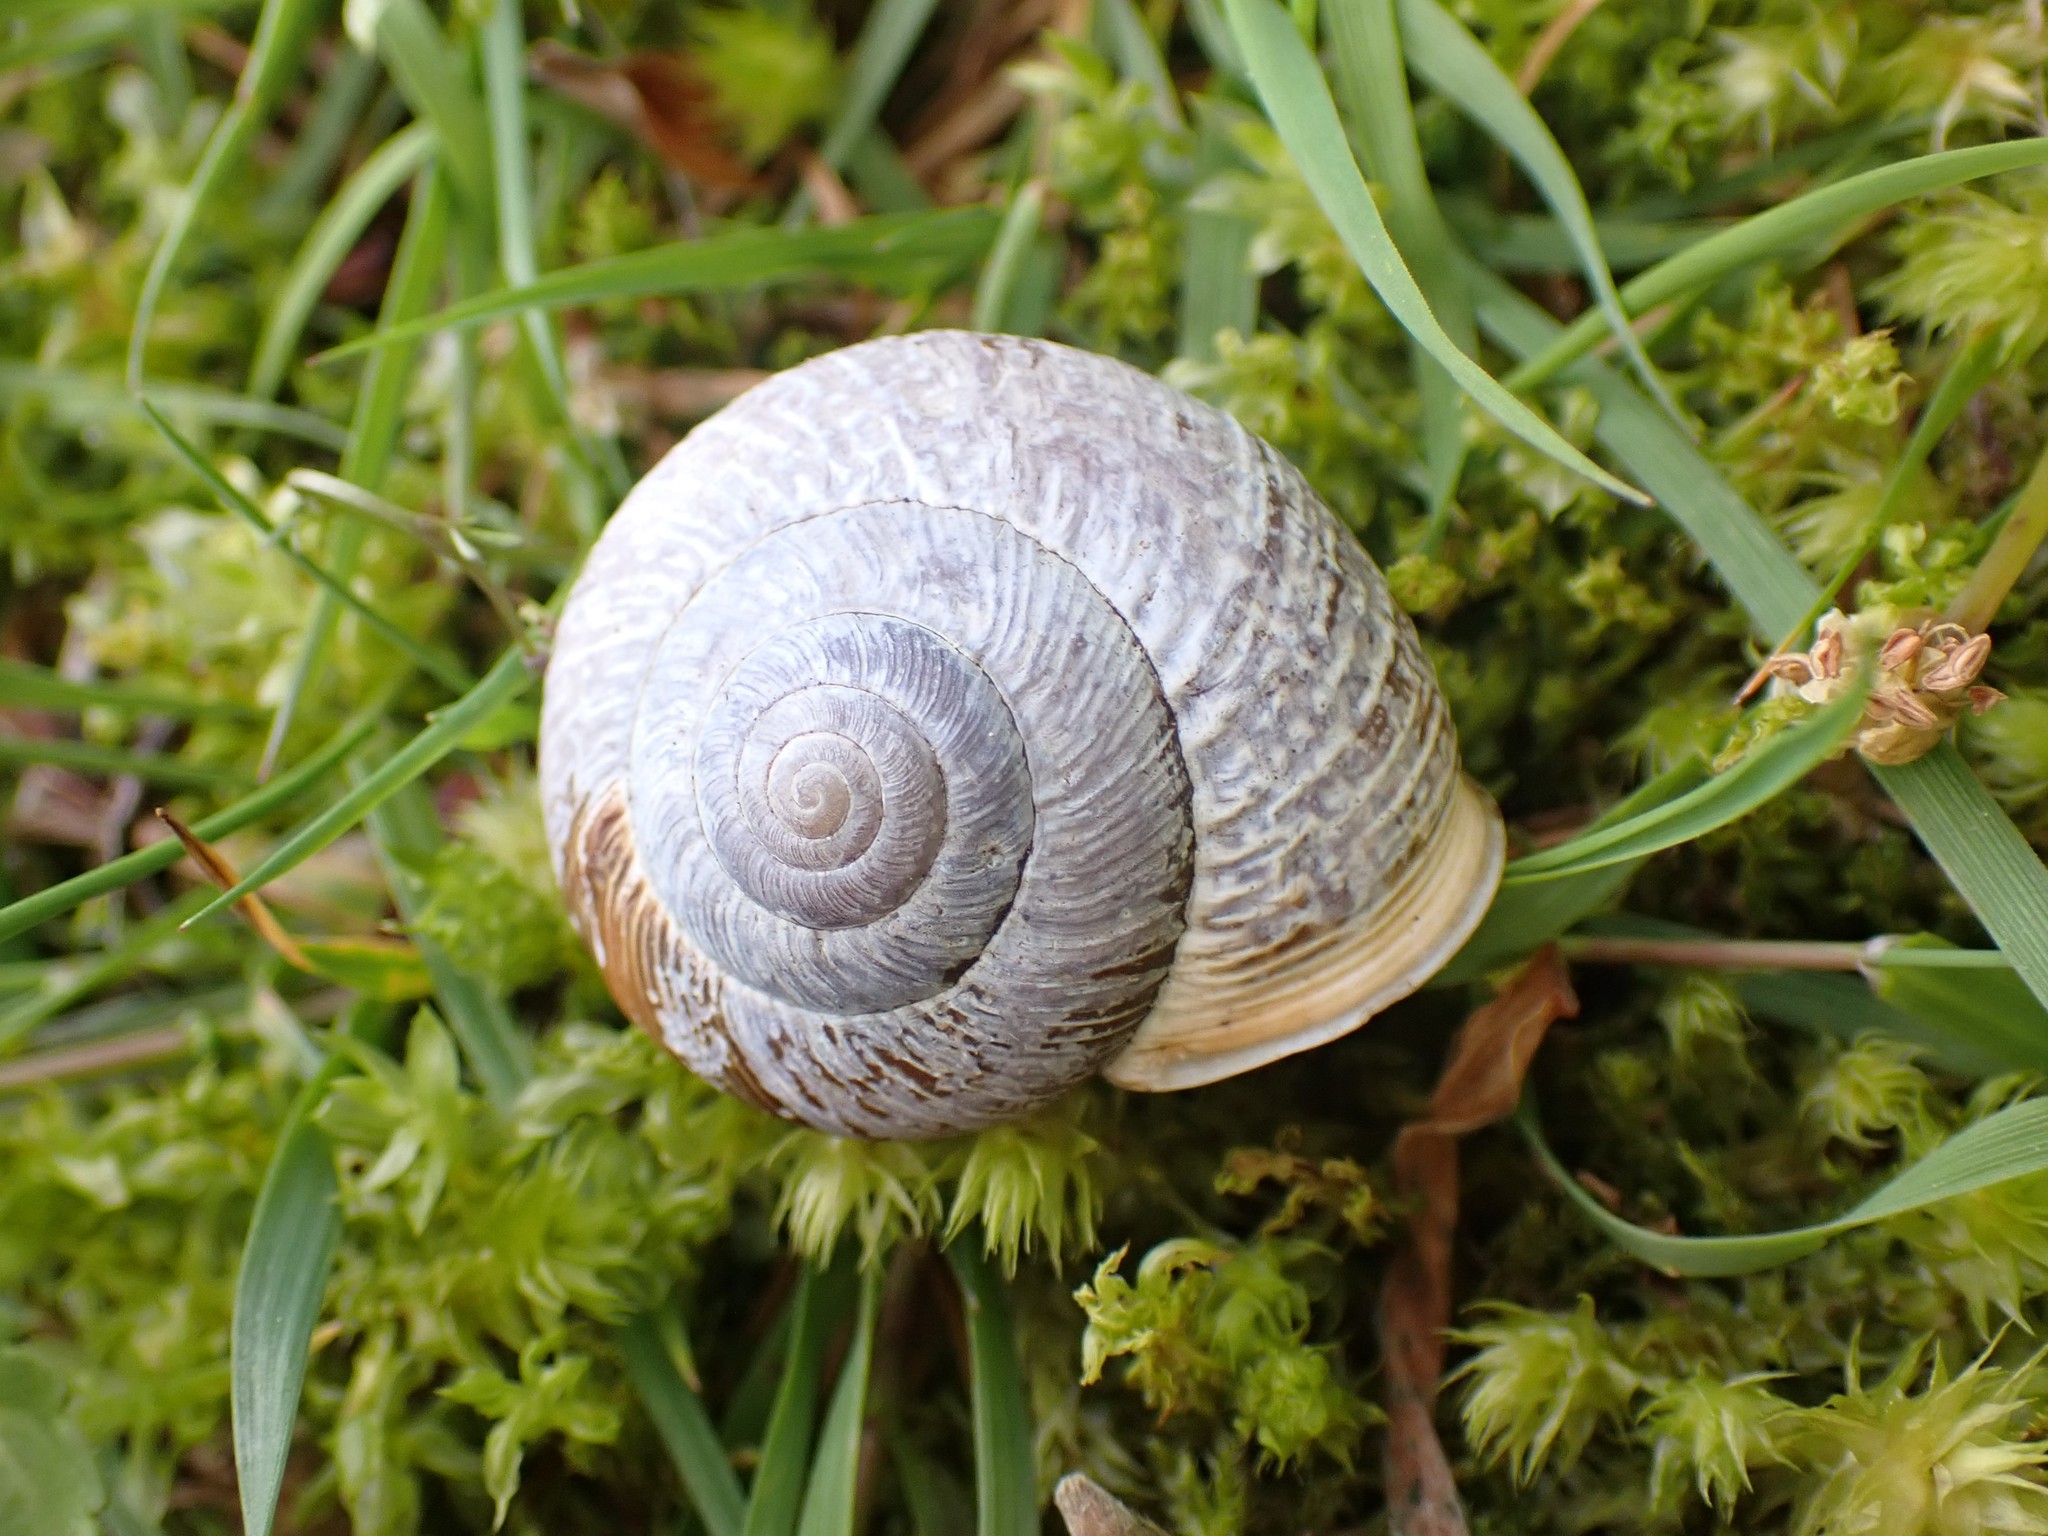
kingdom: Animalia
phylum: Mollusca
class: Gastropoda
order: Stylommatophora
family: Polygyridae
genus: Allogona
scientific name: Allogona townsendiana
